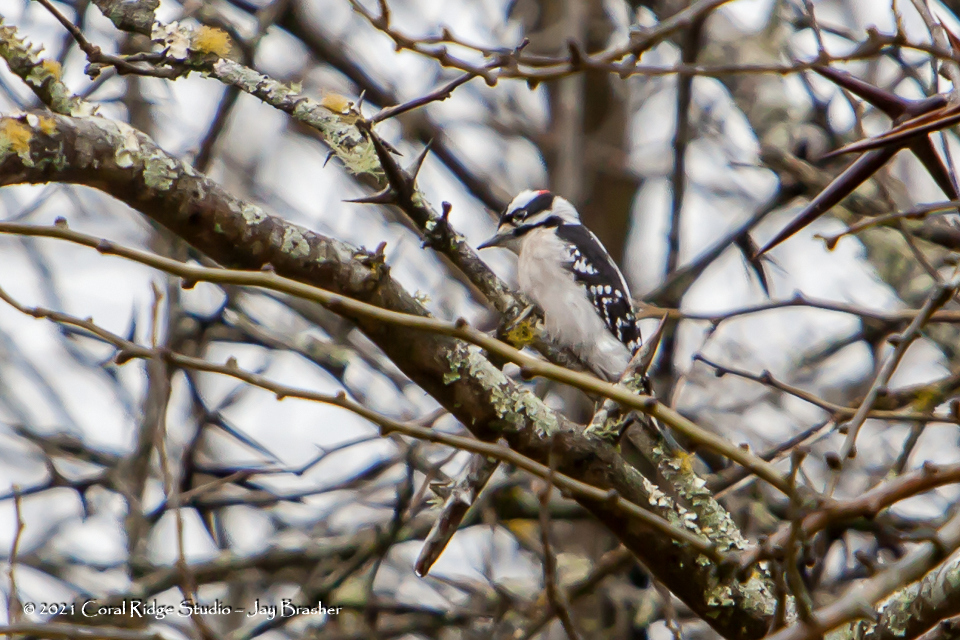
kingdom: Animalia
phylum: Chordata
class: Aves
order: Piciformes
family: Picidae
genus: Dryobates
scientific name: Dryobates pubescens
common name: Downy woodpecker
